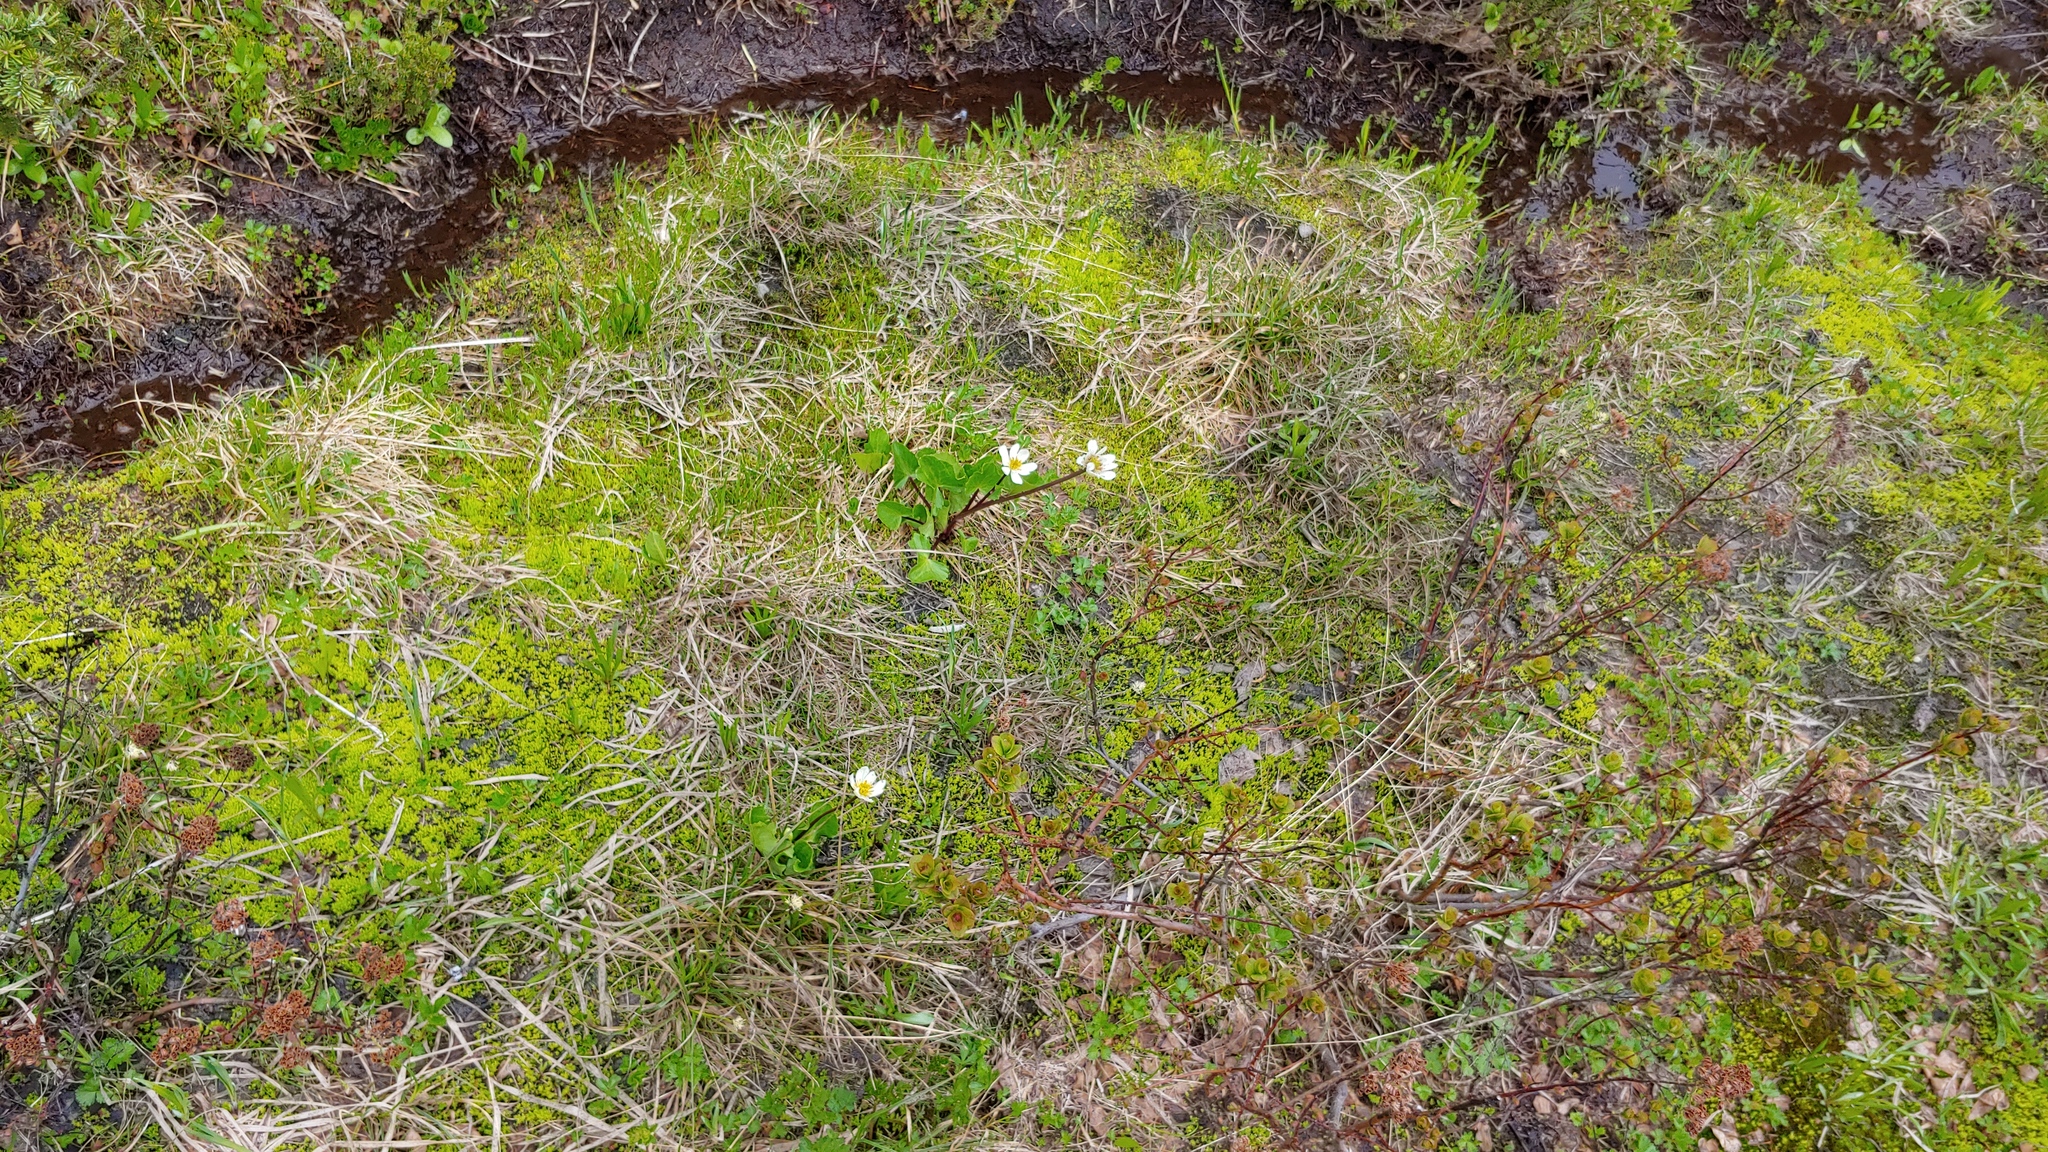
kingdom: Plantae
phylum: Tracheophyta
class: Magnoliopsida
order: Ranunculales
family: Ranunculaceae
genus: Caltha
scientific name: Caltha leptosepala
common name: Elkslip
